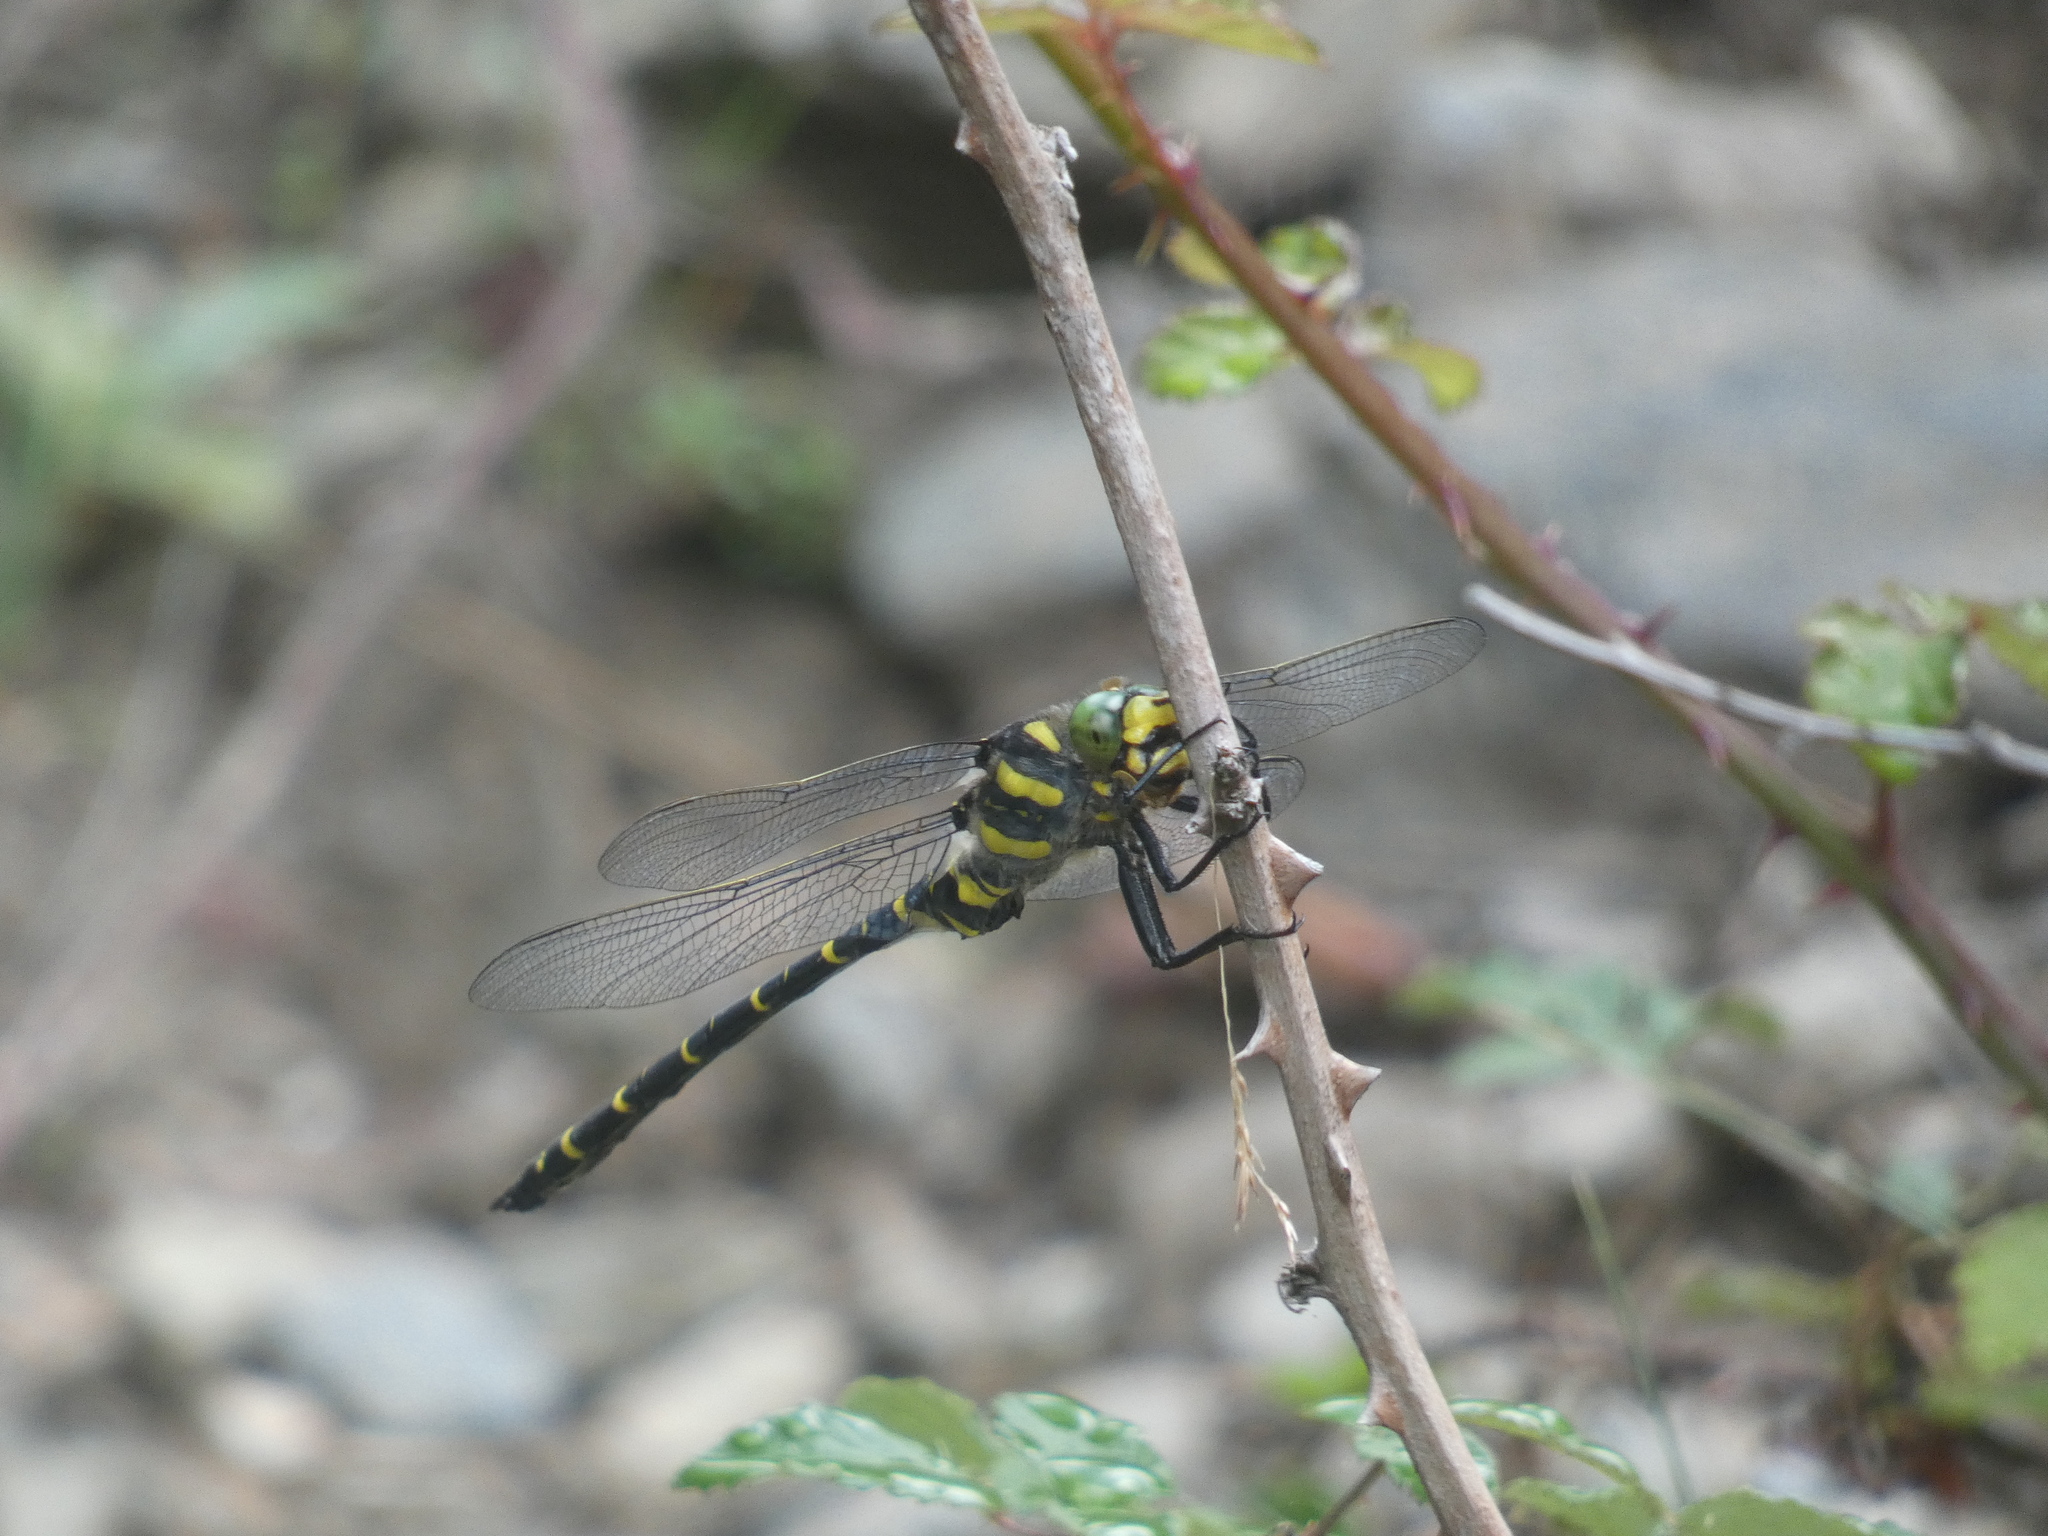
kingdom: Animalia
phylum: Arthropoda
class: Insecta
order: Odonata
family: Cordulegastridae
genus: Cordulegaster
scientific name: Cordulegaster boltonii
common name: Golden-ringed dragonfly
